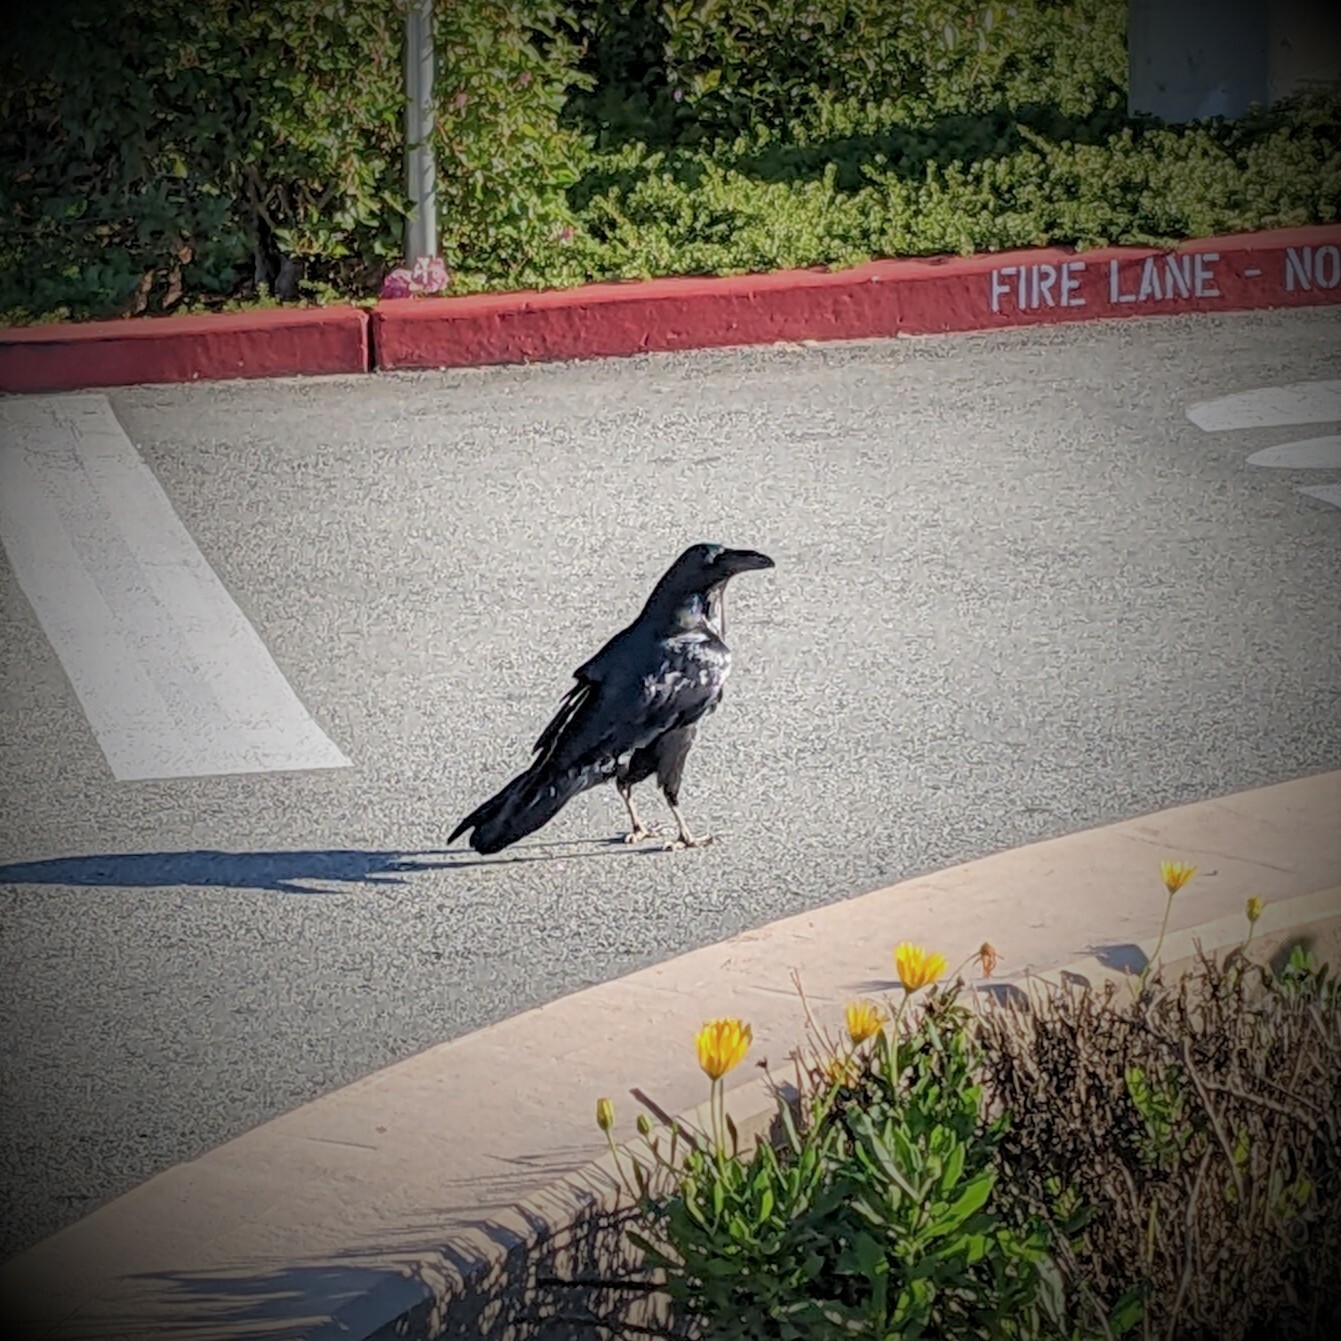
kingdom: Animalia
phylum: Chordata
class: Aves
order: Passeriformes
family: Corvidae
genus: Corvus
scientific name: Corvus corax
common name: Common raven
